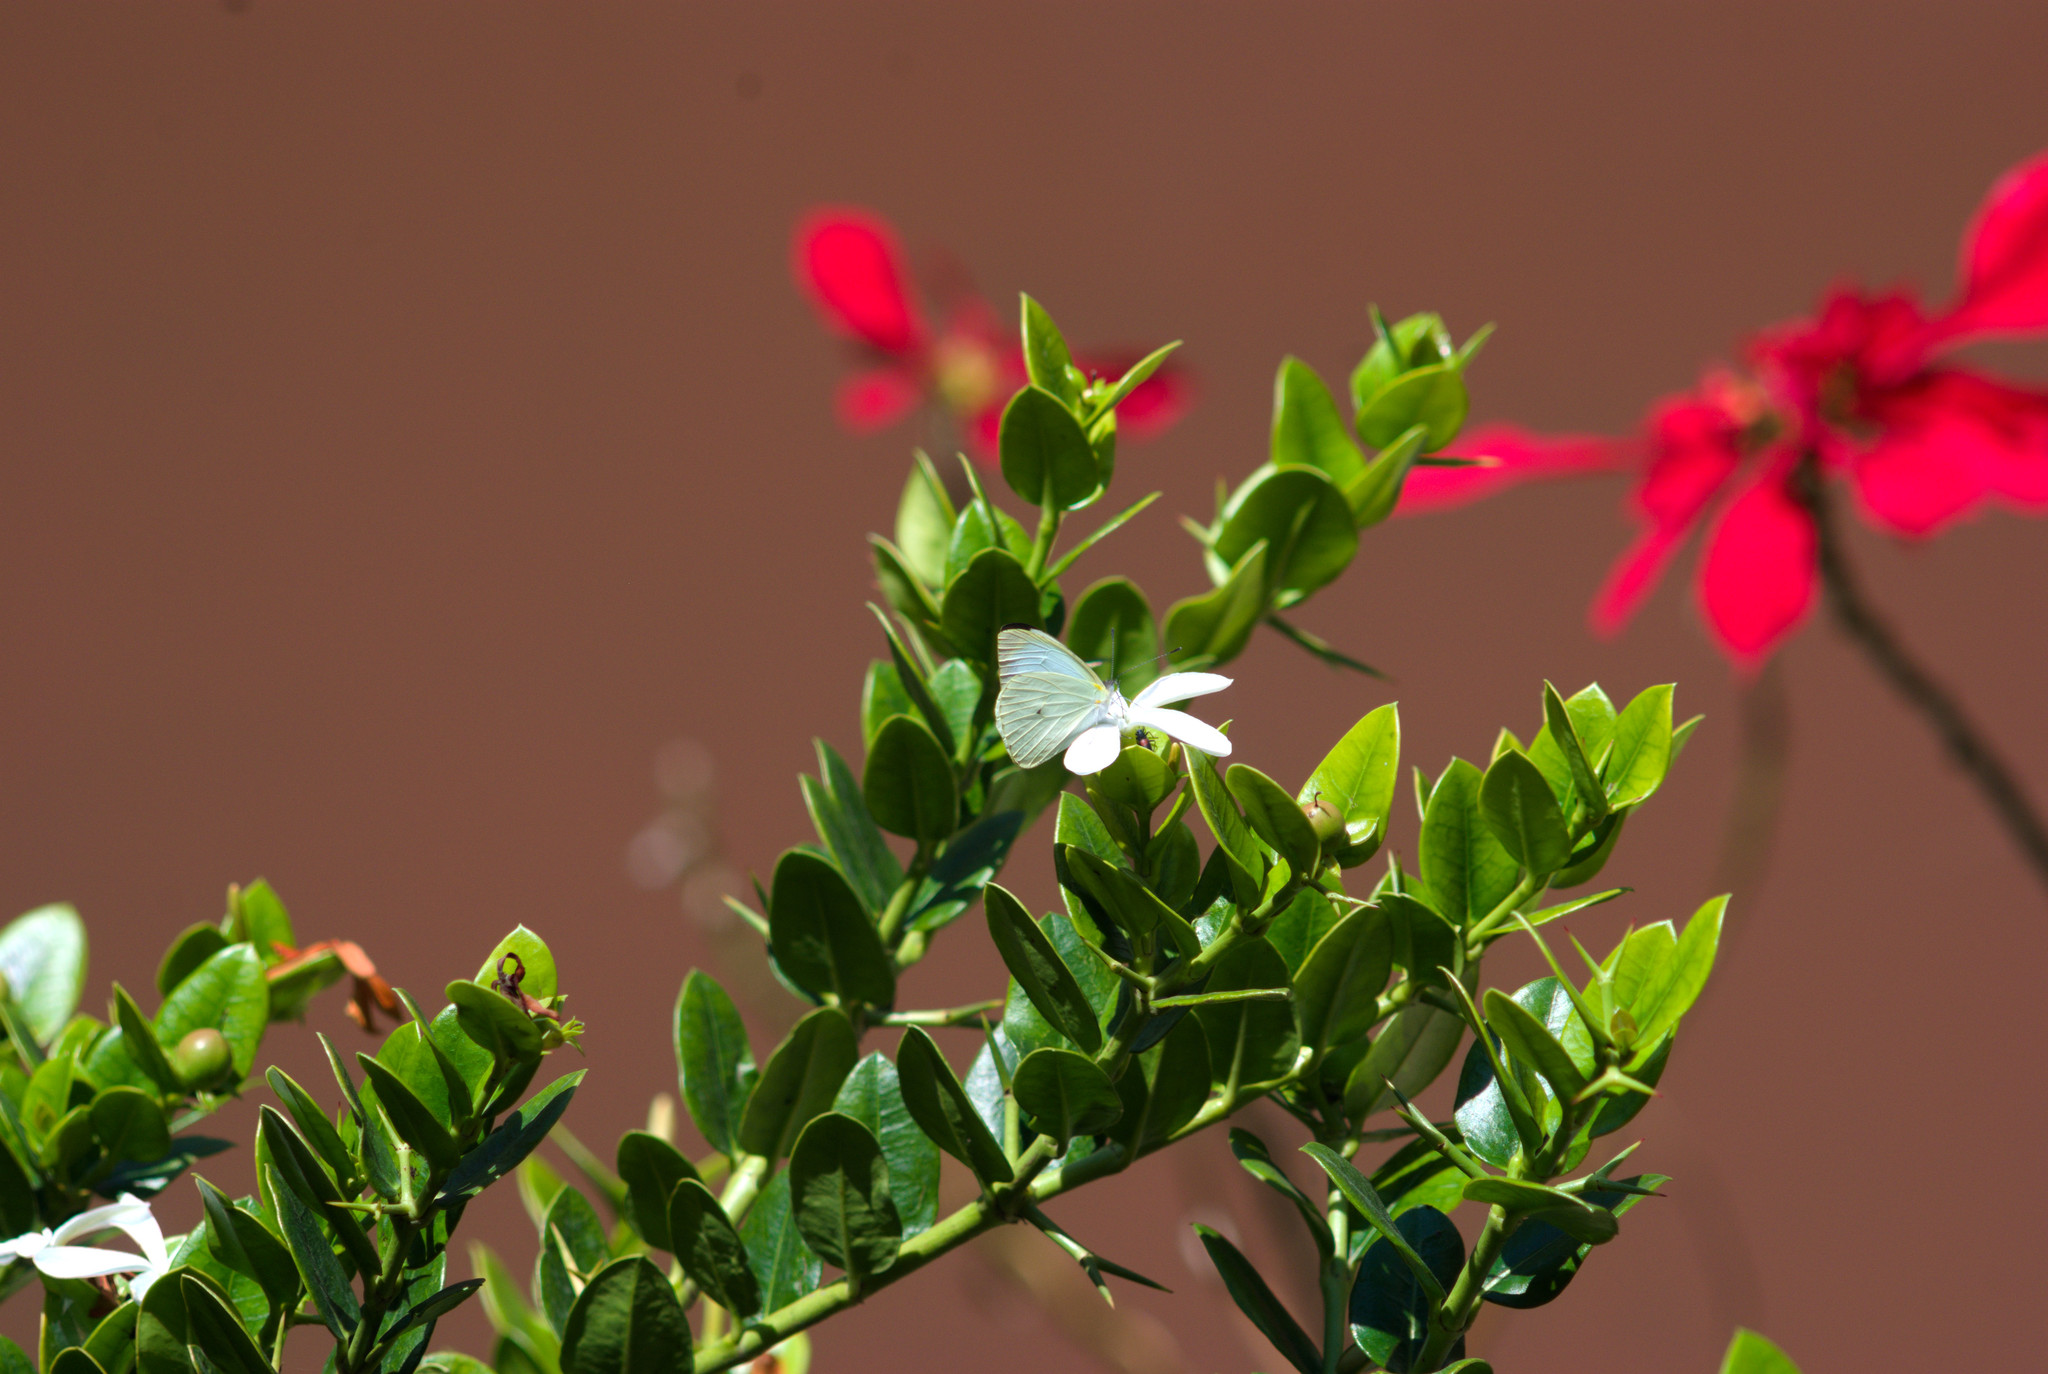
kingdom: Animalia
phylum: Arthropoda
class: Insecta
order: Lepidoptera
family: Pieridae
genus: Leptophobia
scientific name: Leptophobia aripa
